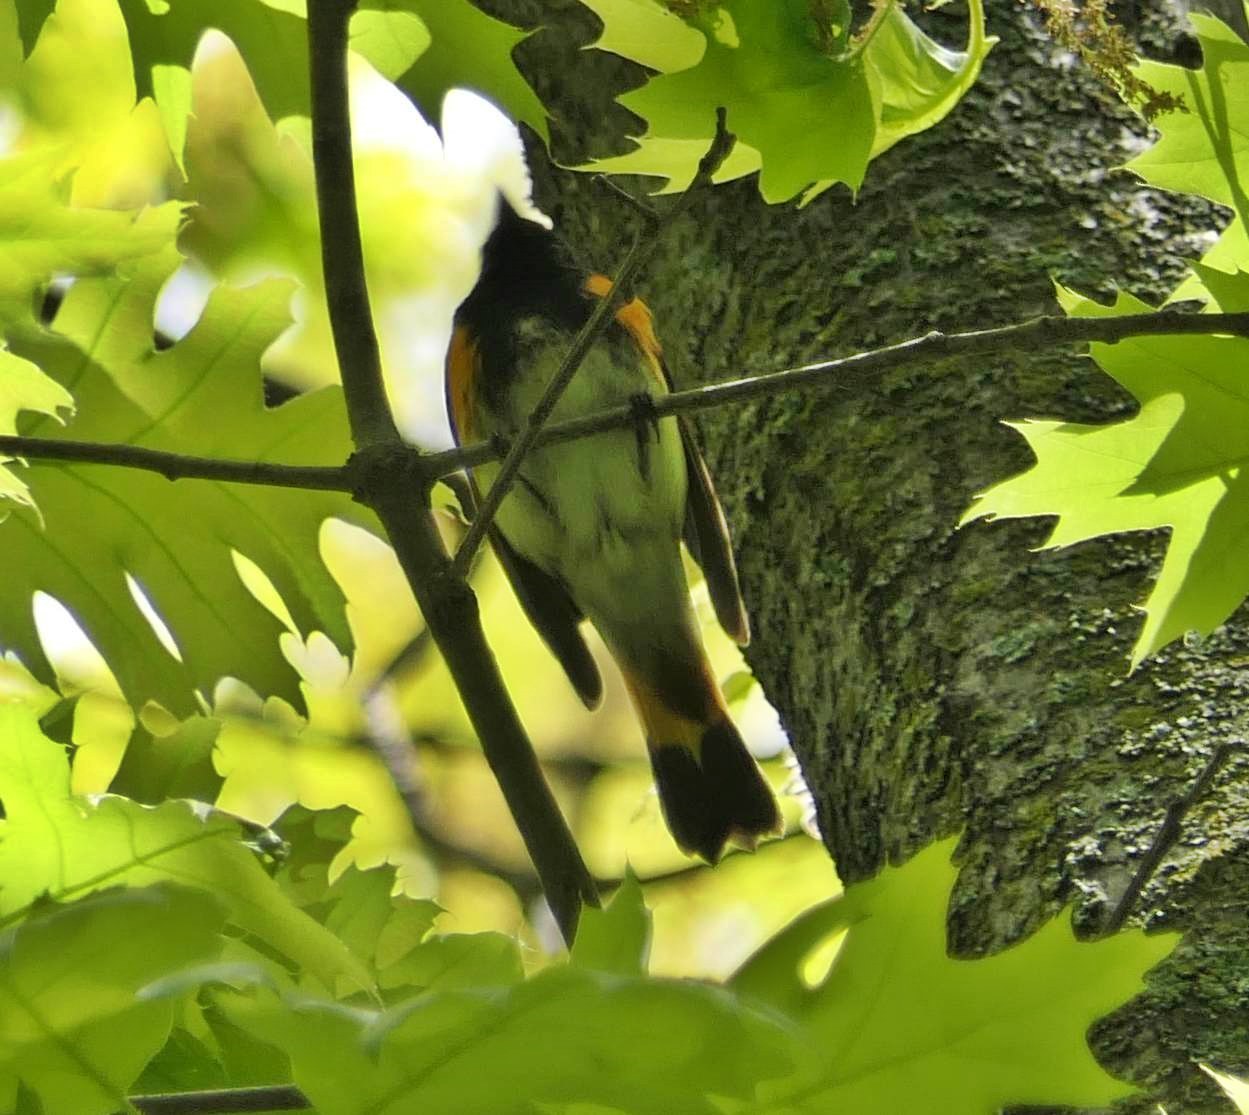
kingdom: Animalia
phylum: Chordata
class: Aves
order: Passeriformes
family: Parulidae
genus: Setophaga
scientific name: Setophaga ruticilla
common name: American redstart
